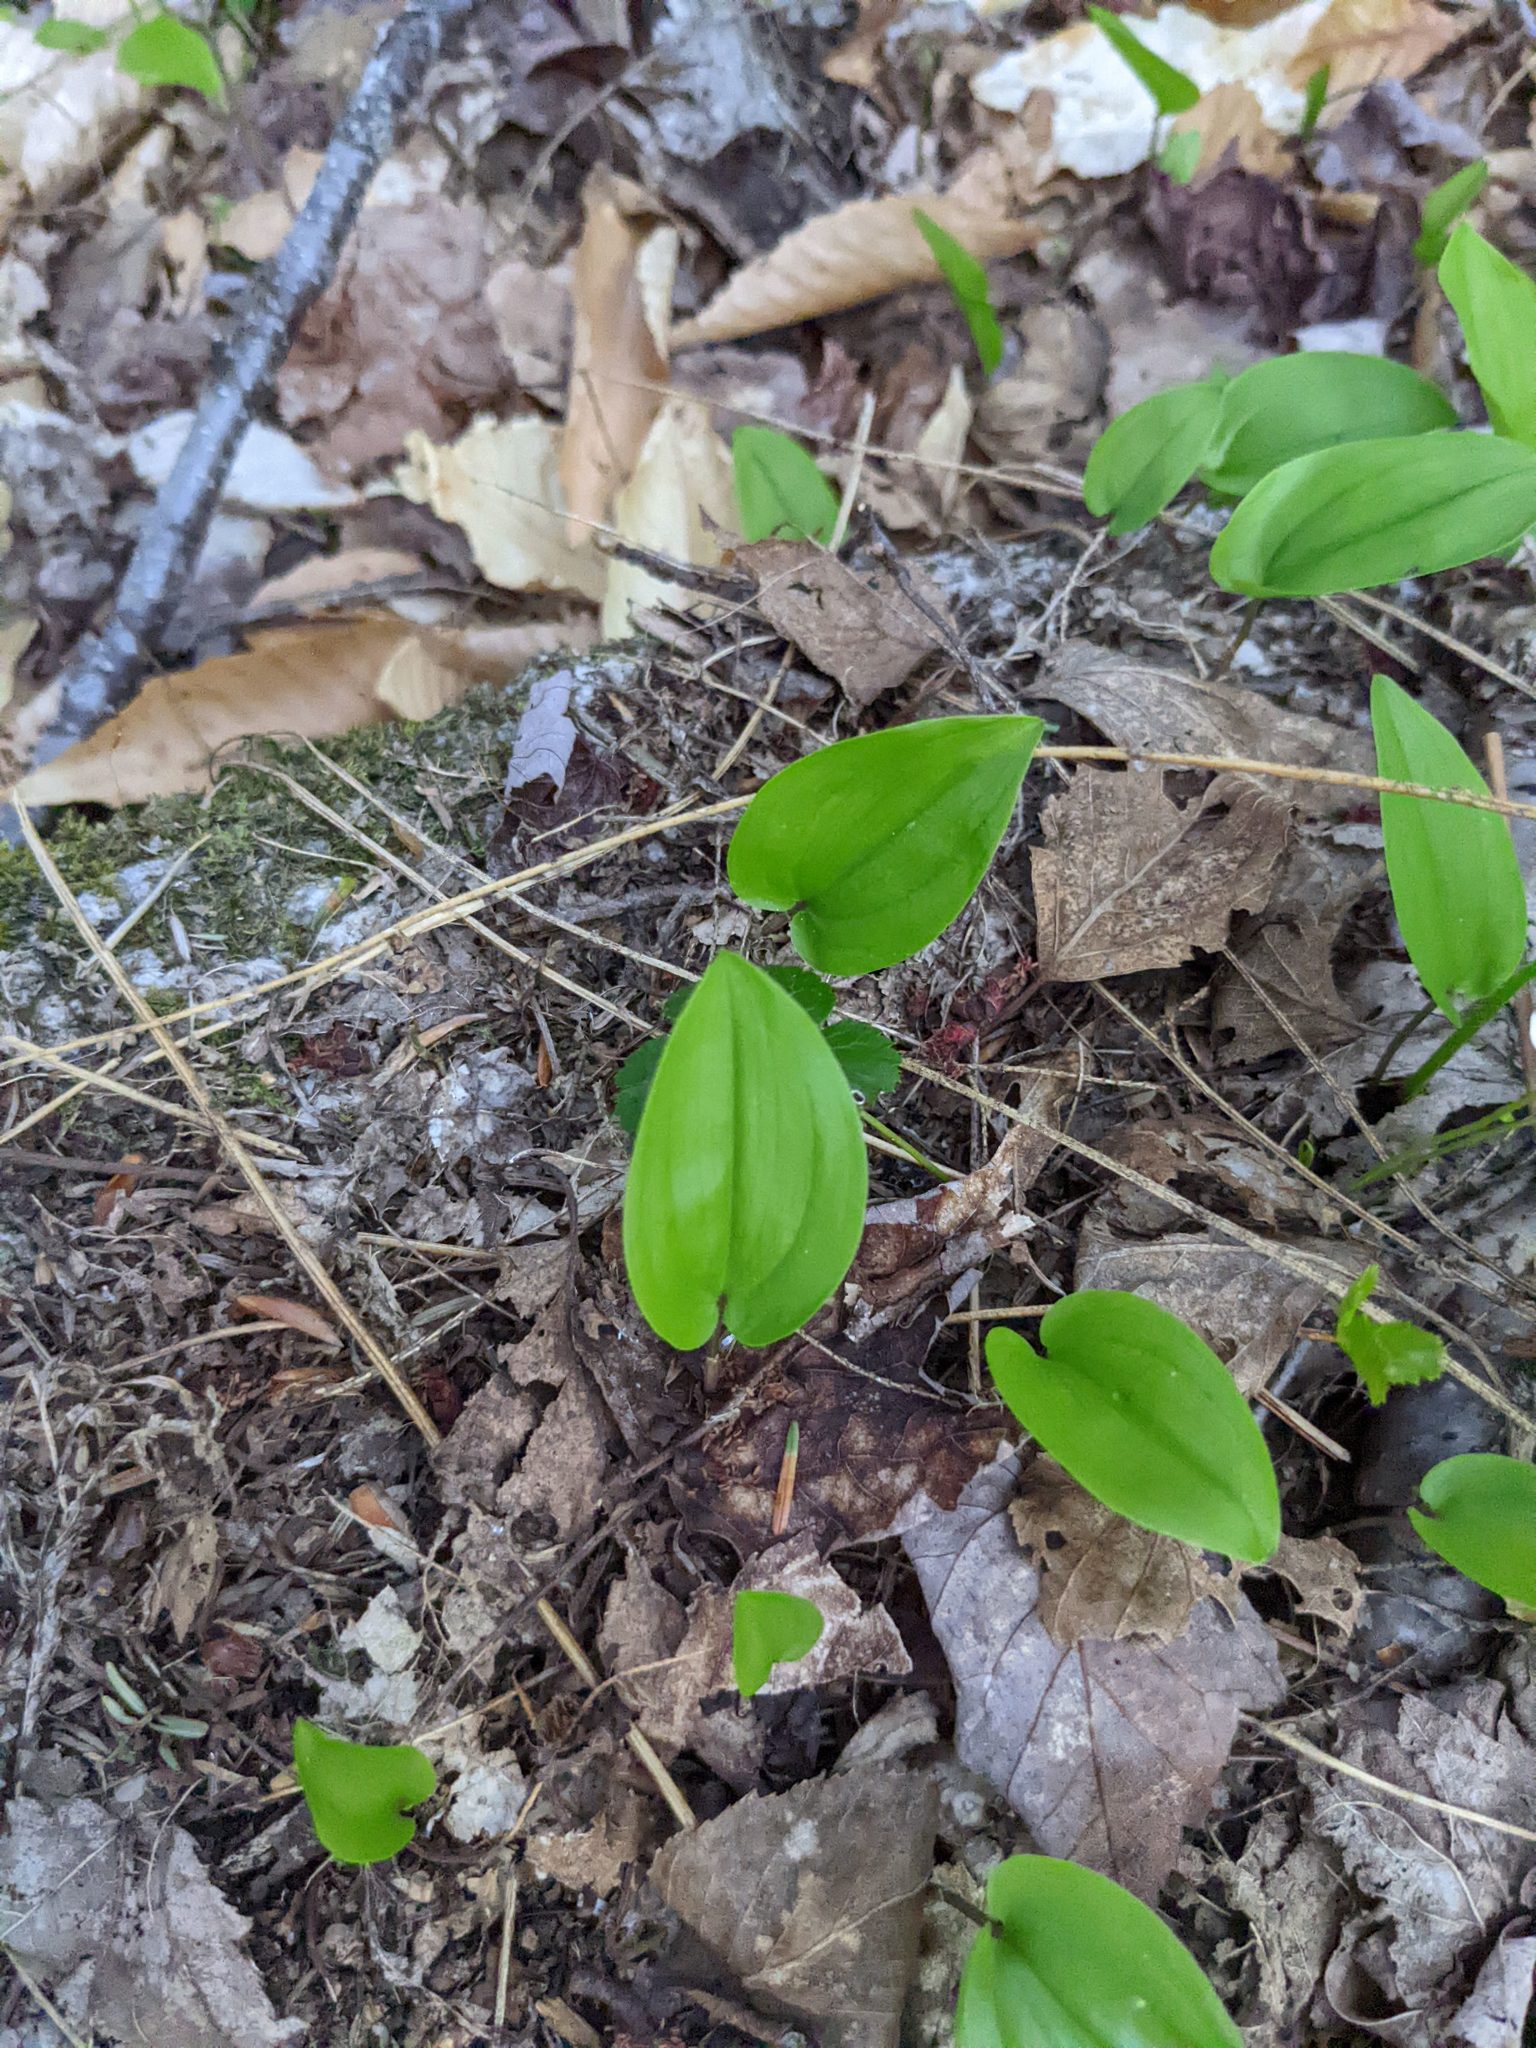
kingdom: Plantae
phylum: Tracheophyta
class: Liliopsida
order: Asparagales
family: Asparagaceae
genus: Maianthemum
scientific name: Maianthemum canadense
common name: False lily-of-the-valley
